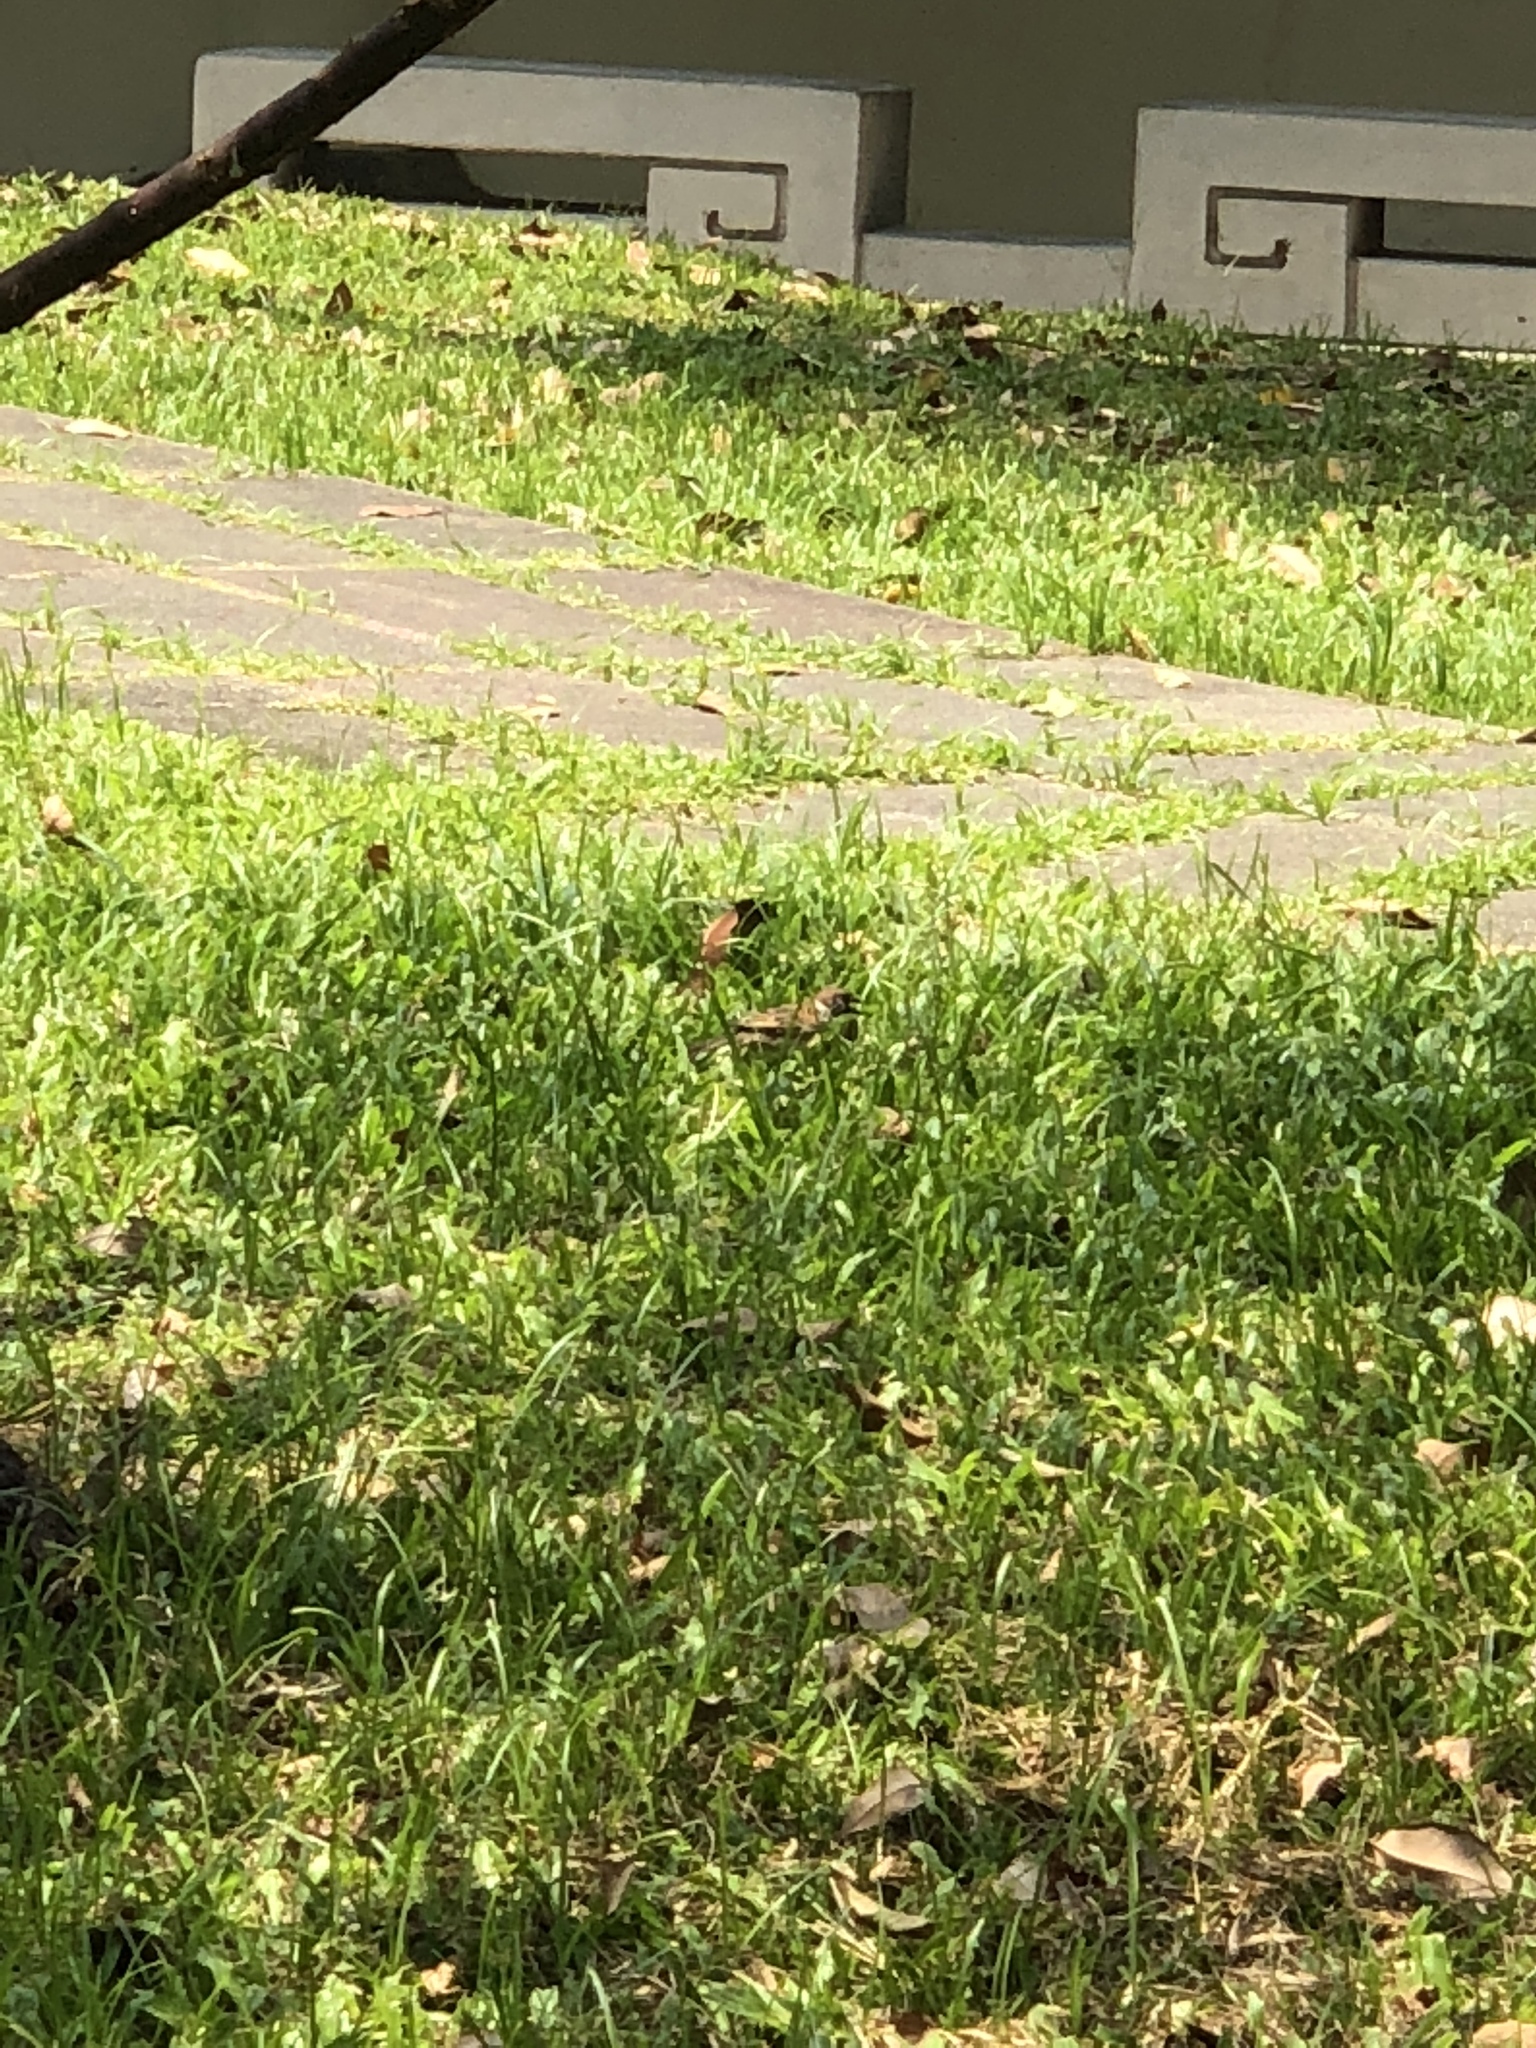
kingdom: Animalia
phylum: Chordata
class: Aves
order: Passeriformes
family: Passeridae
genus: Passer
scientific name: Passer montanus
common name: Eurasian tree sparrow
